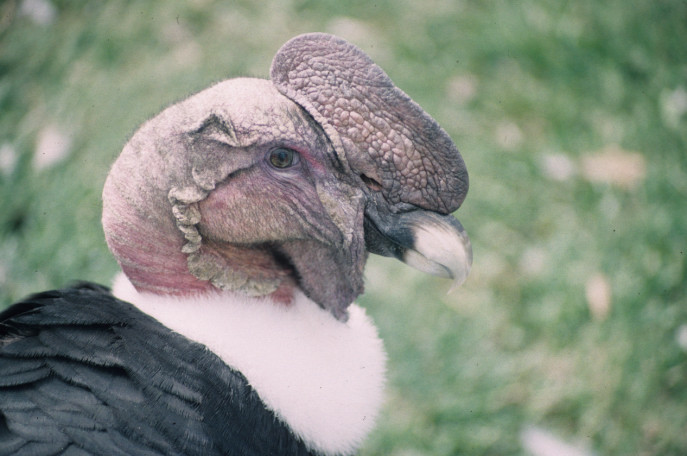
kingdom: Animalia
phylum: Chordata
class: Aves
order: Accipitriformes
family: Cathartidae
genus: Vultur
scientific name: Vultur gryphus
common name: Andean condor
